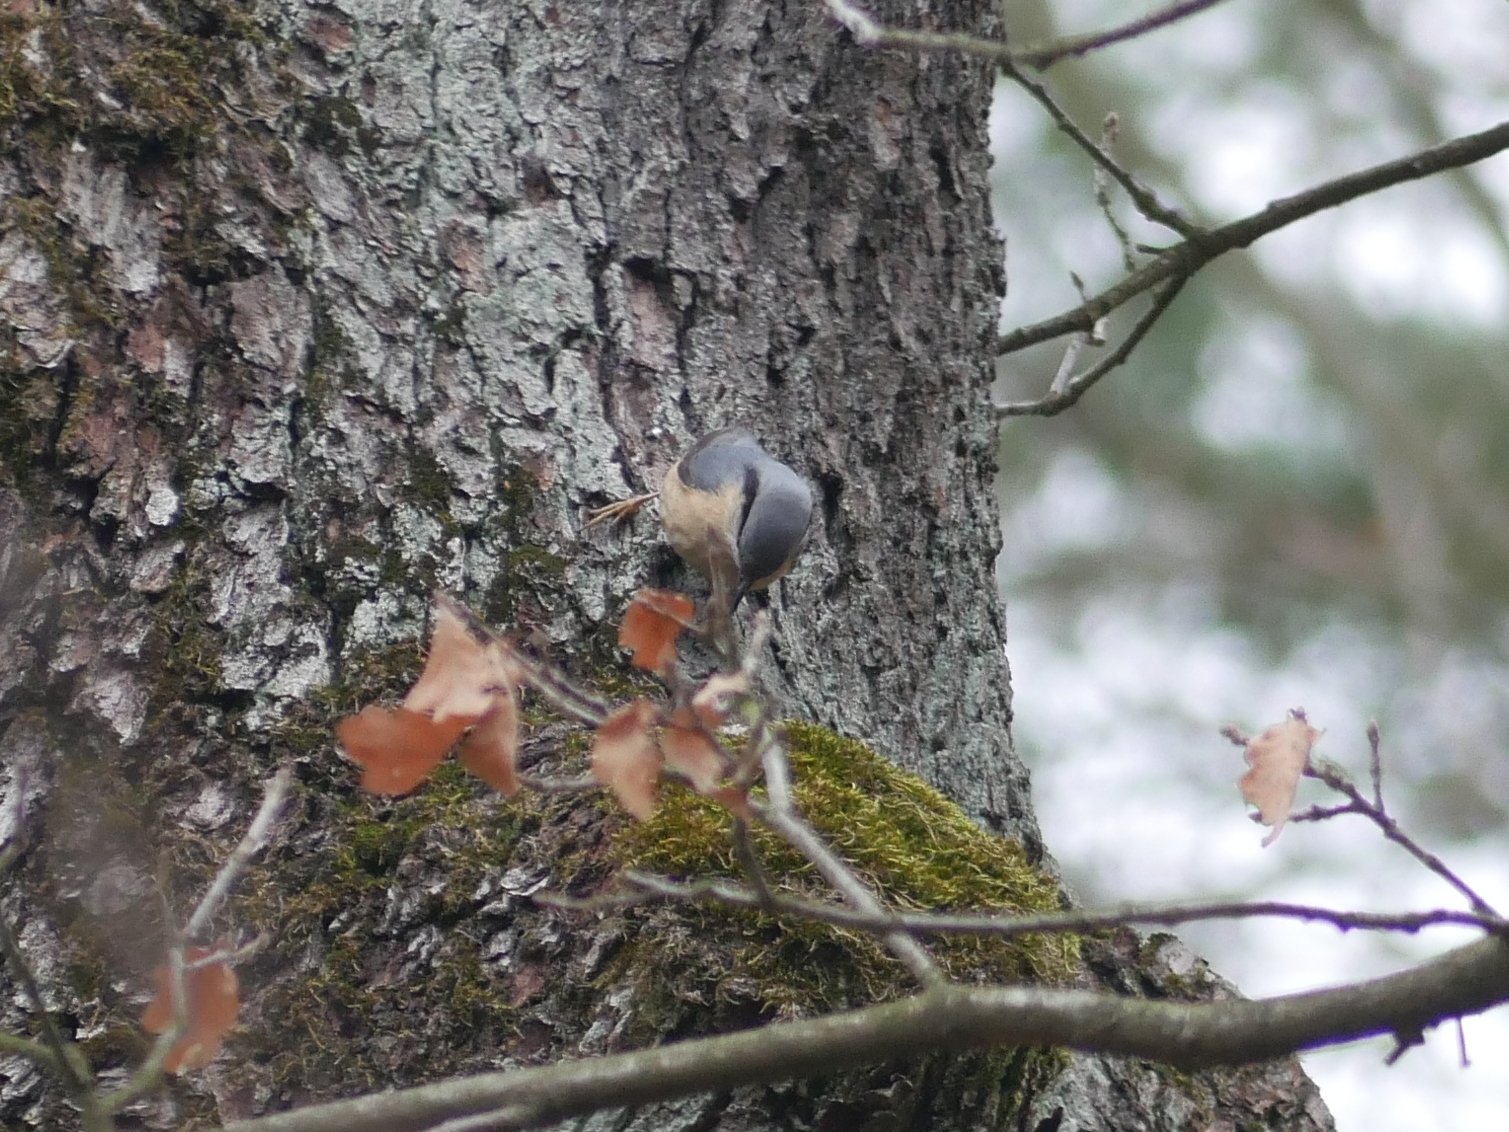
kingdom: Animalia
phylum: Chordata
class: Aves
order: Passeriformes
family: Sittidae
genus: Sitta
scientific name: Sitta europaea
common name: Eurasian nuthatch
